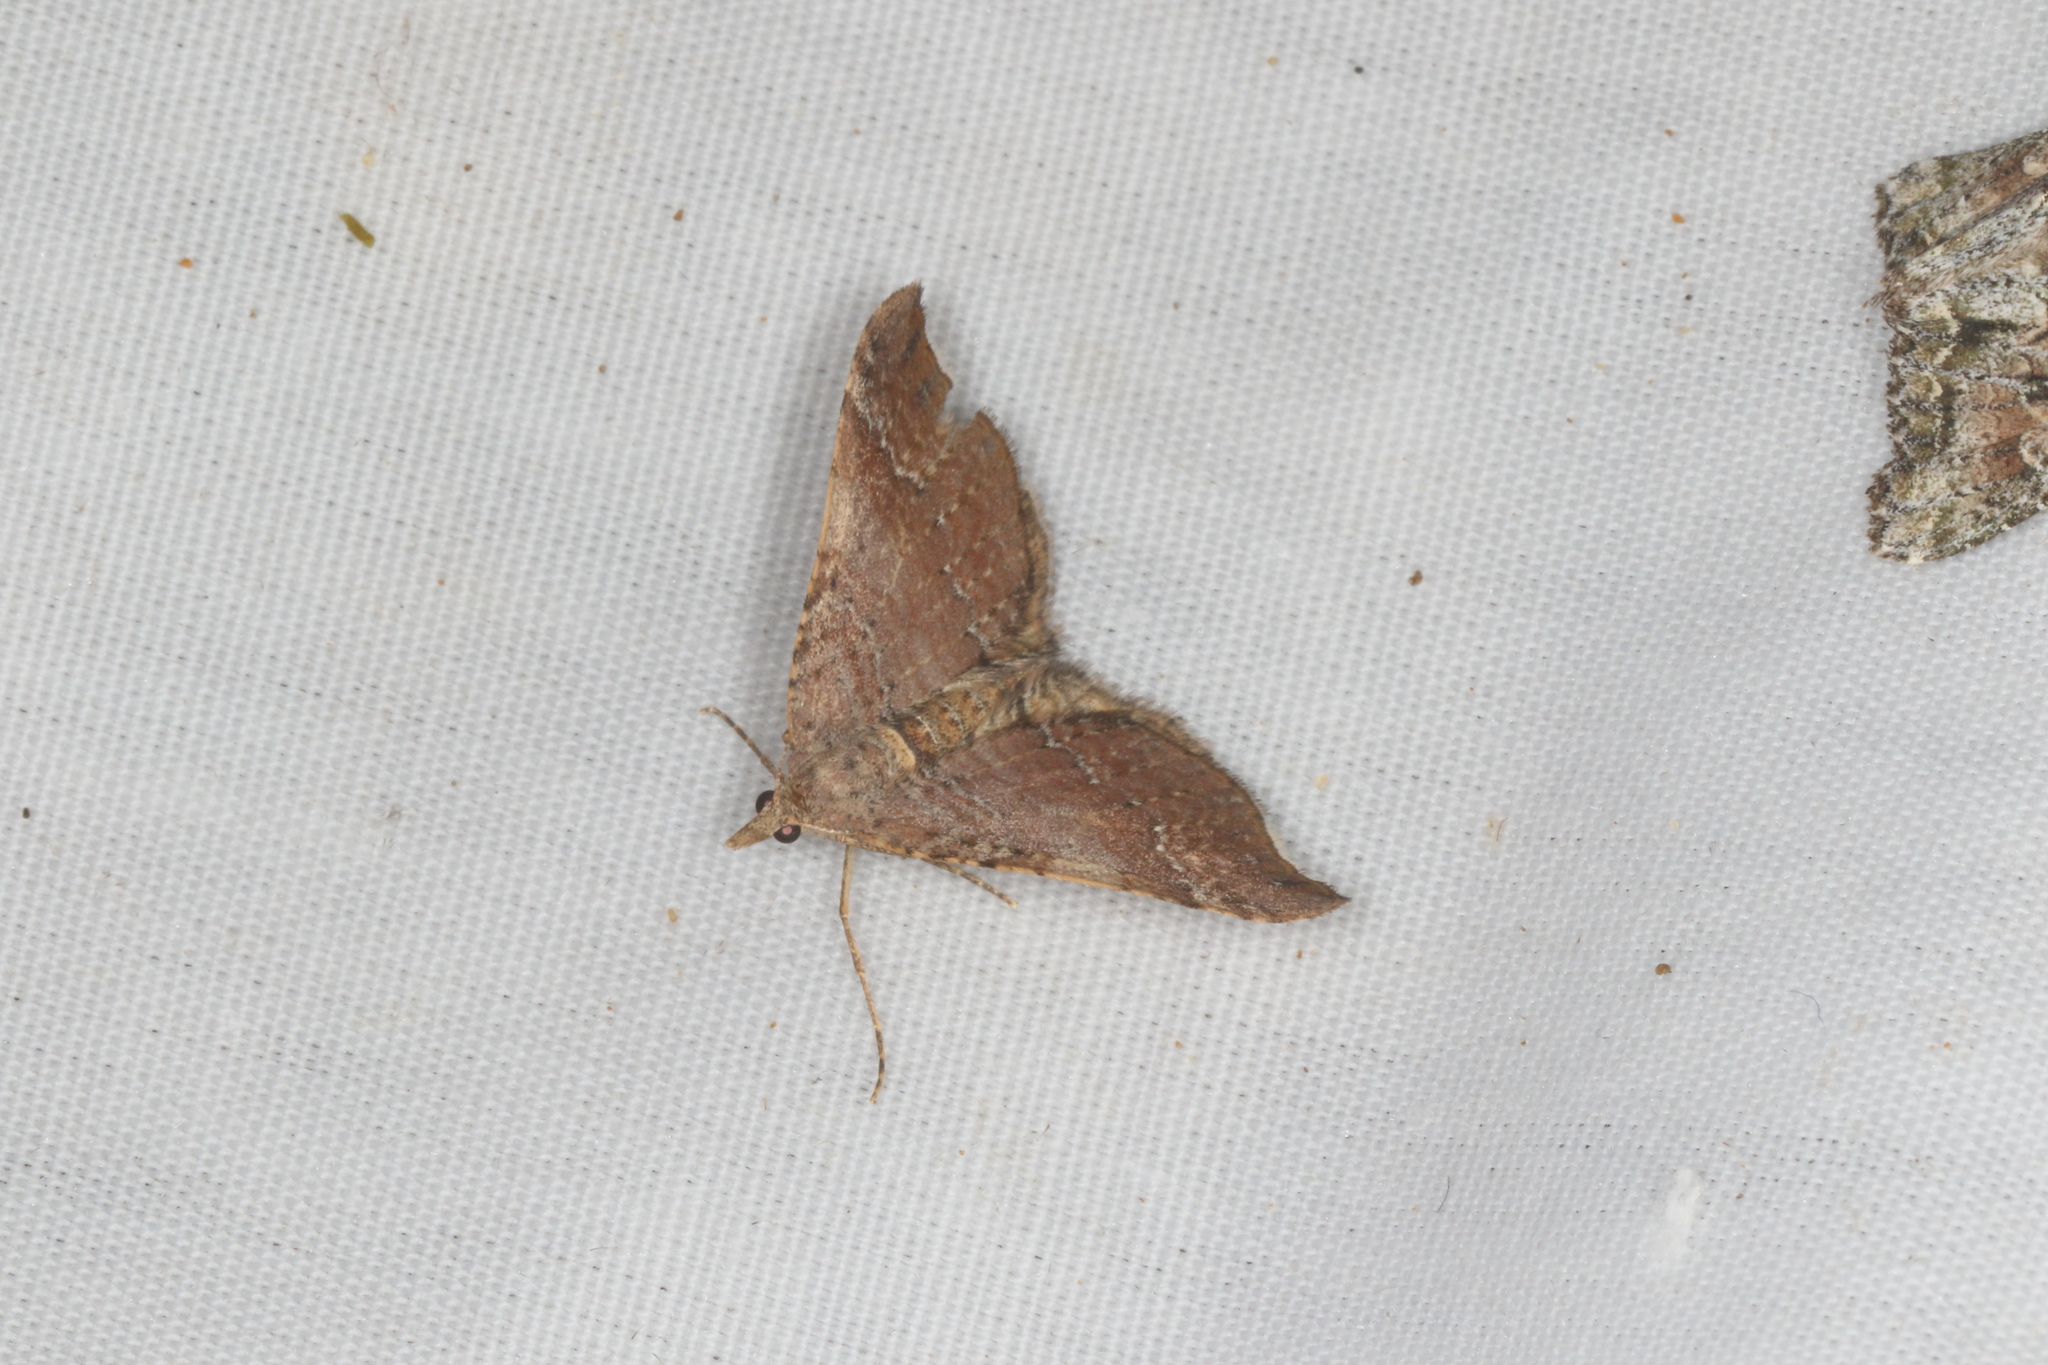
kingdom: Animalia
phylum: Arthropoda
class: Insecta
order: Lepidoptera
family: Geometridae
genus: Homodotis
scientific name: Homodotis megaspilata
